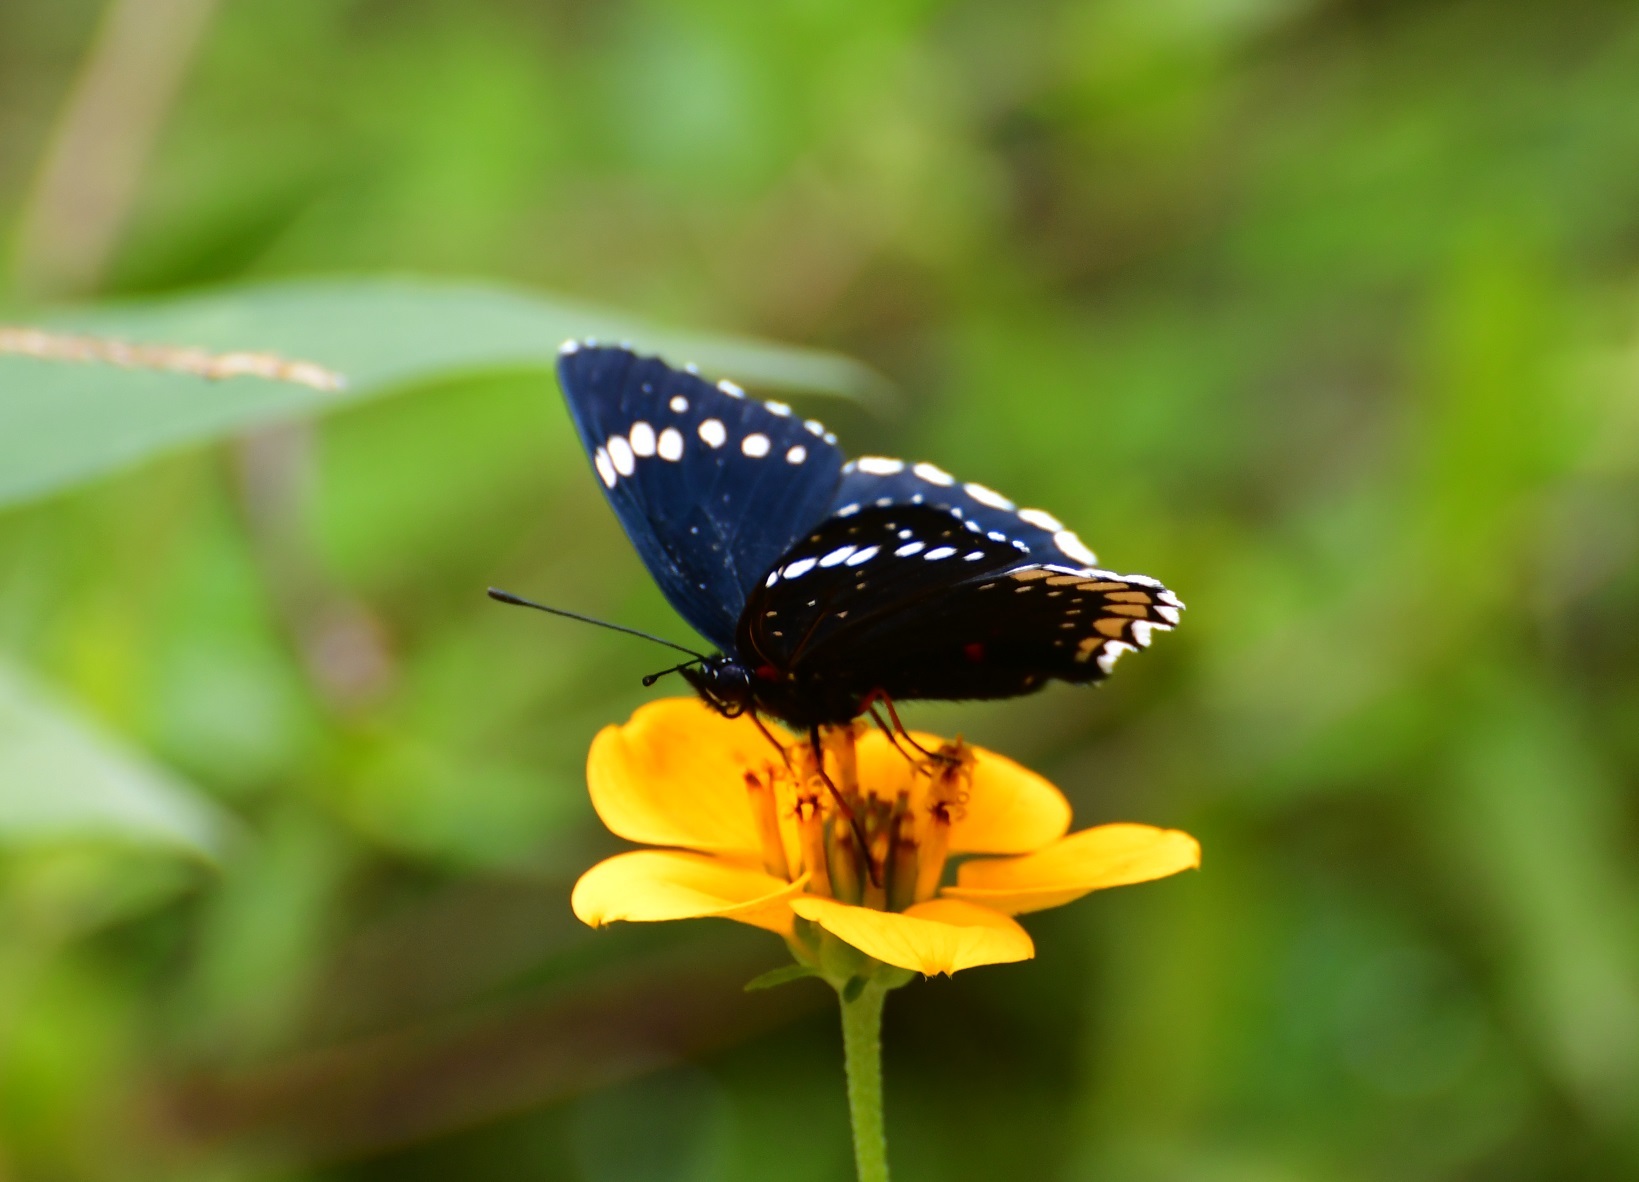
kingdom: Animalia
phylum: Arthropoda
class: Insecta
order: Lepidoptera
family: Nymphalidae
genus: Chlosyne
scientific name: Chlosyne hippodrome
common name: Simple patch
